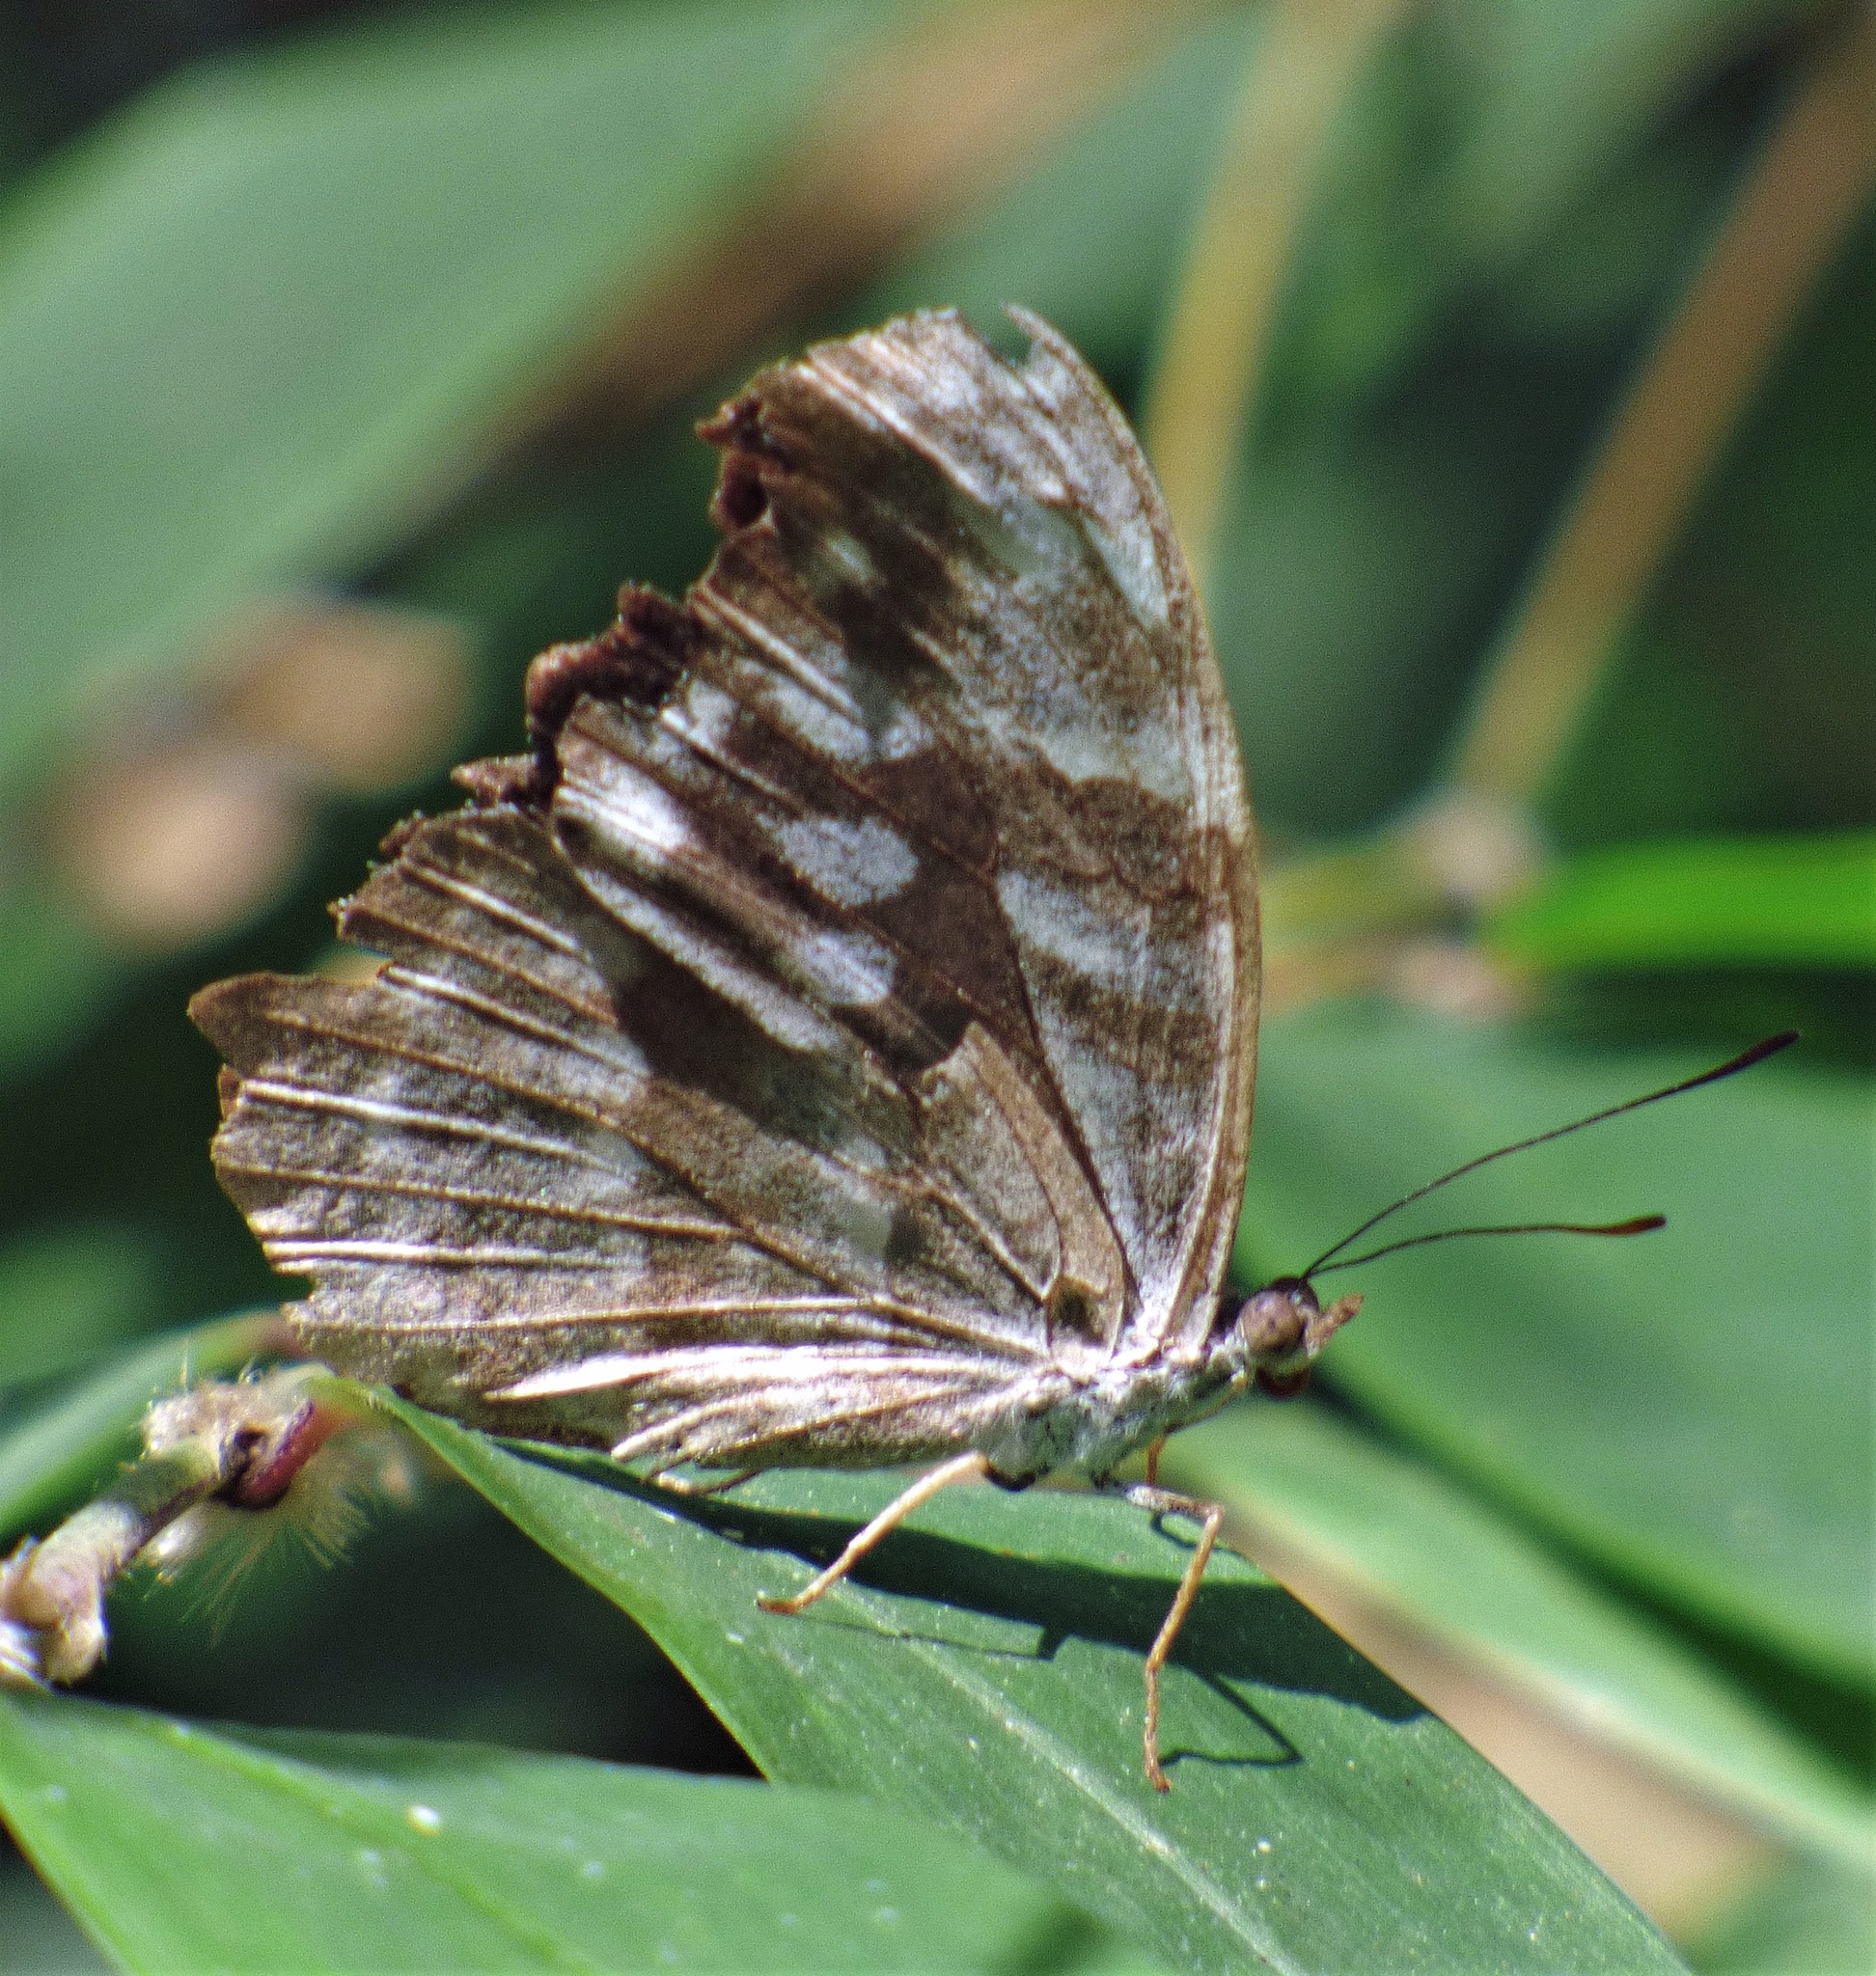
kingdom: Animalia
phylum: Arthropoda
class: Insecta
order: Lepidoptera
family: Nymphalidae
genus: Myscelia
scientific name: Myscelia orsis
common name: Orsis bluewing
